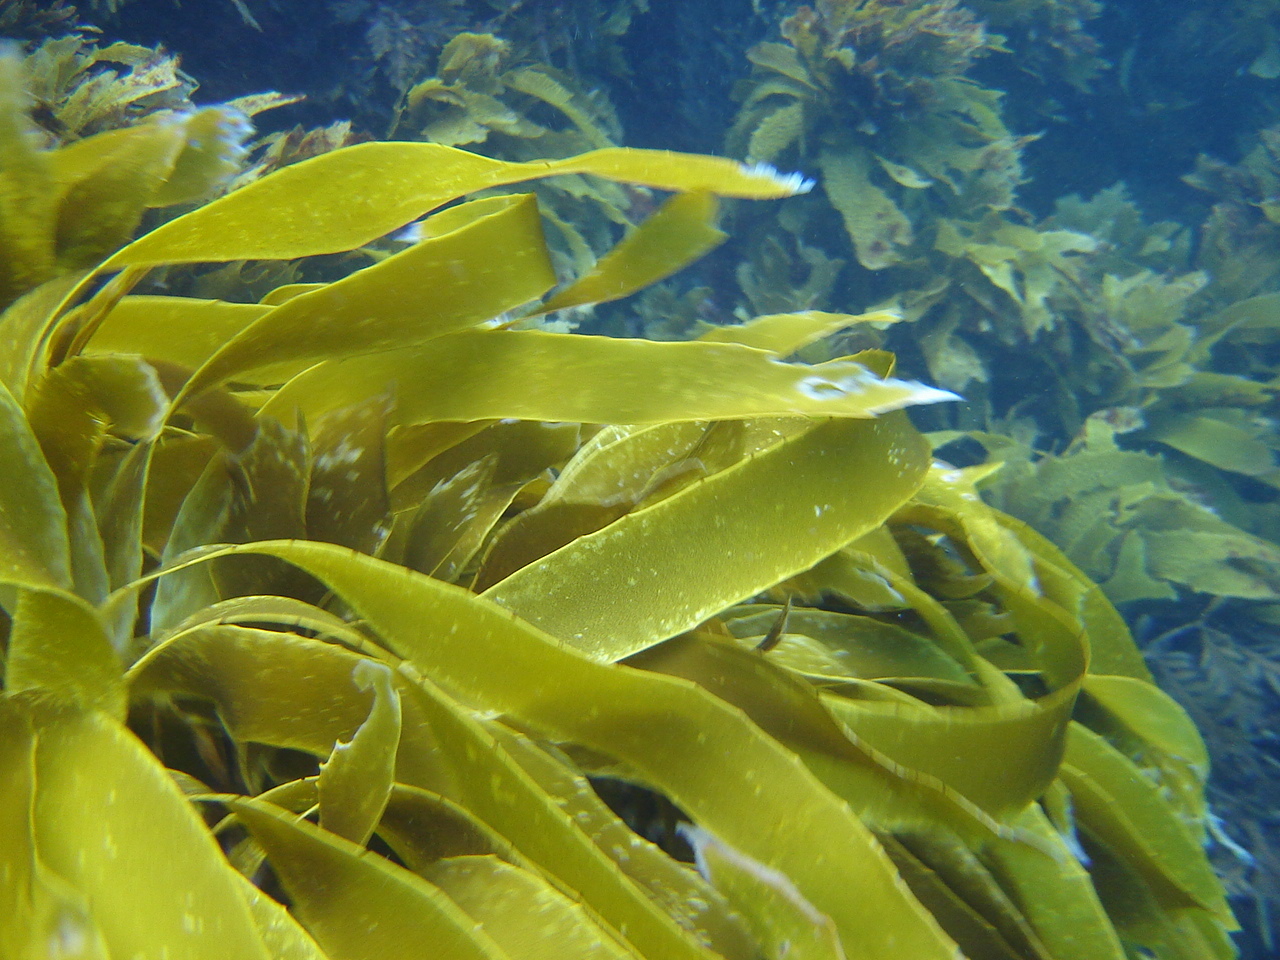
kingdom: Chromista
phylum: Ochrophyta
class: Phaeophyceae
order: Laminariales
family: Lessoniaceae
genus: Lessonia
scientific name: Lessonia
